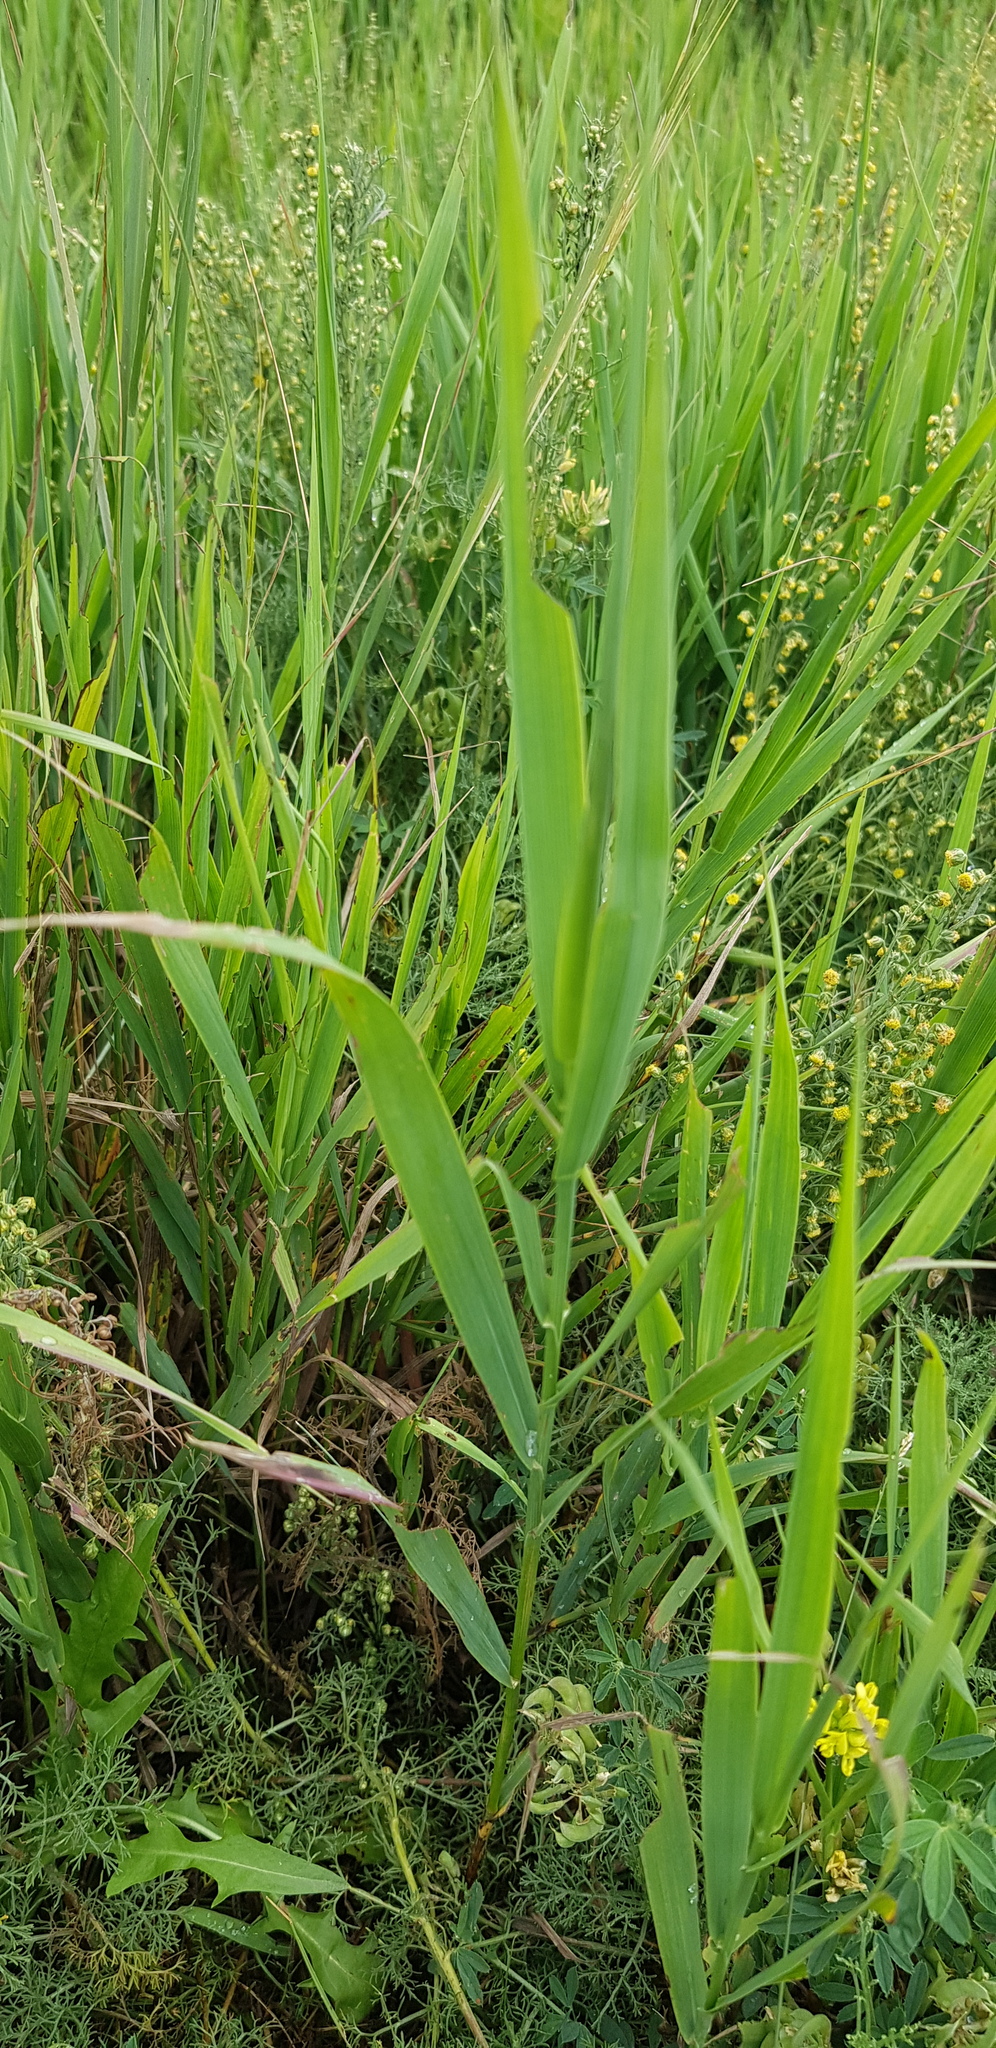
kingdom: Plantae
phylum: Tracheophyta
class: Liliopsida
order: Poales
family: Poaceae
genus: Phragmites
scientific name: Phragmites australis
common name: Common reed
